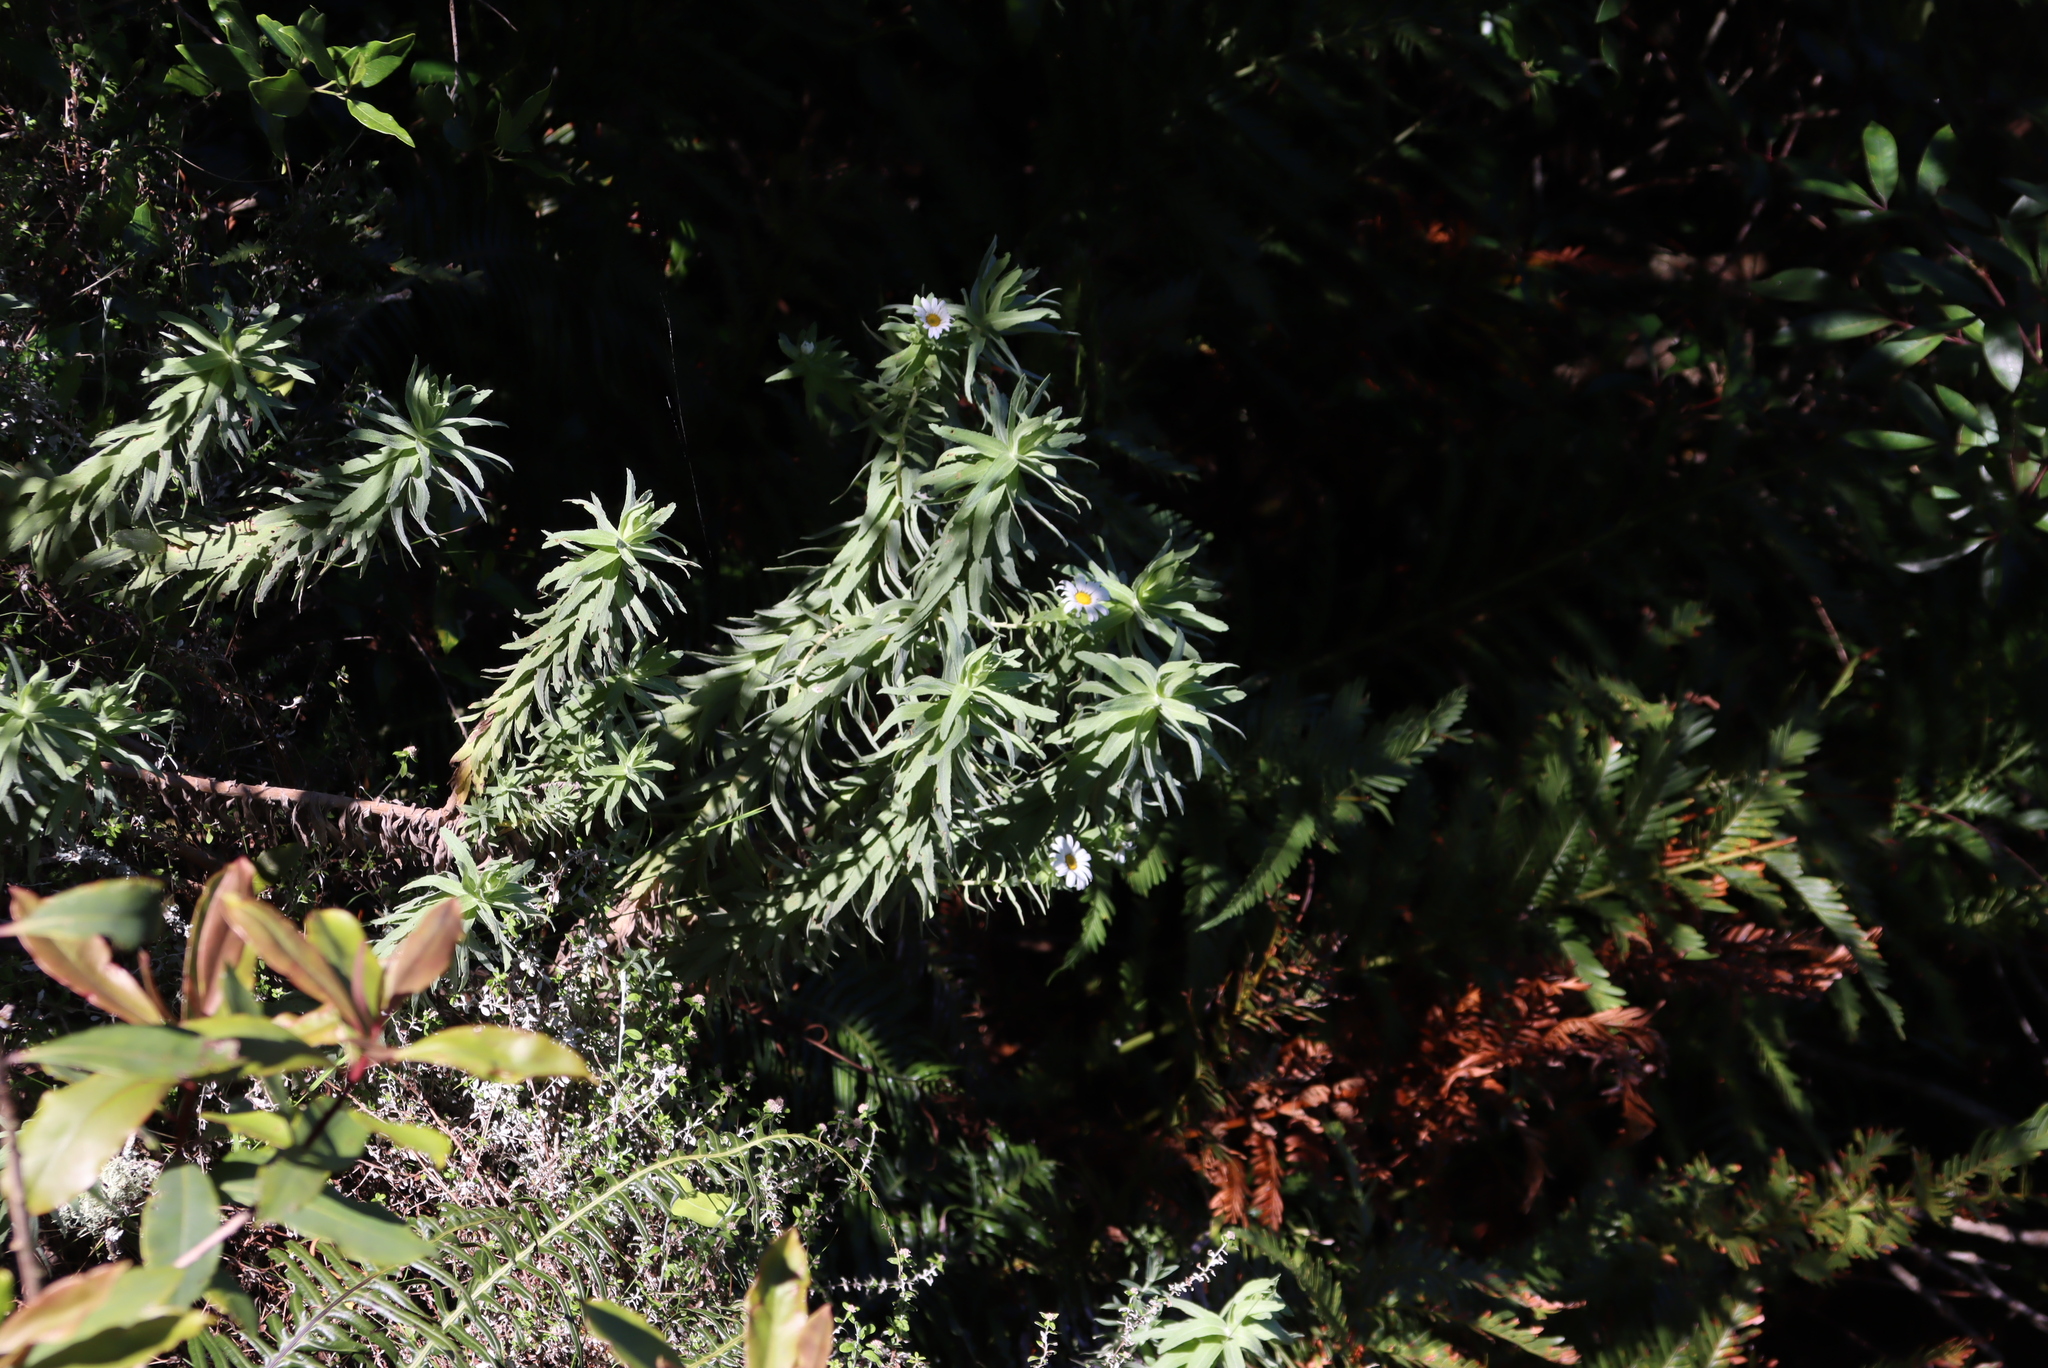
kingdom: Plantae
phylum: Tracheophyta
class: Magnoliopsida
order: Asterales
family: Asteraceae
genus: Osmitopsis
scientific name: Osmitopsis asteriscoides
